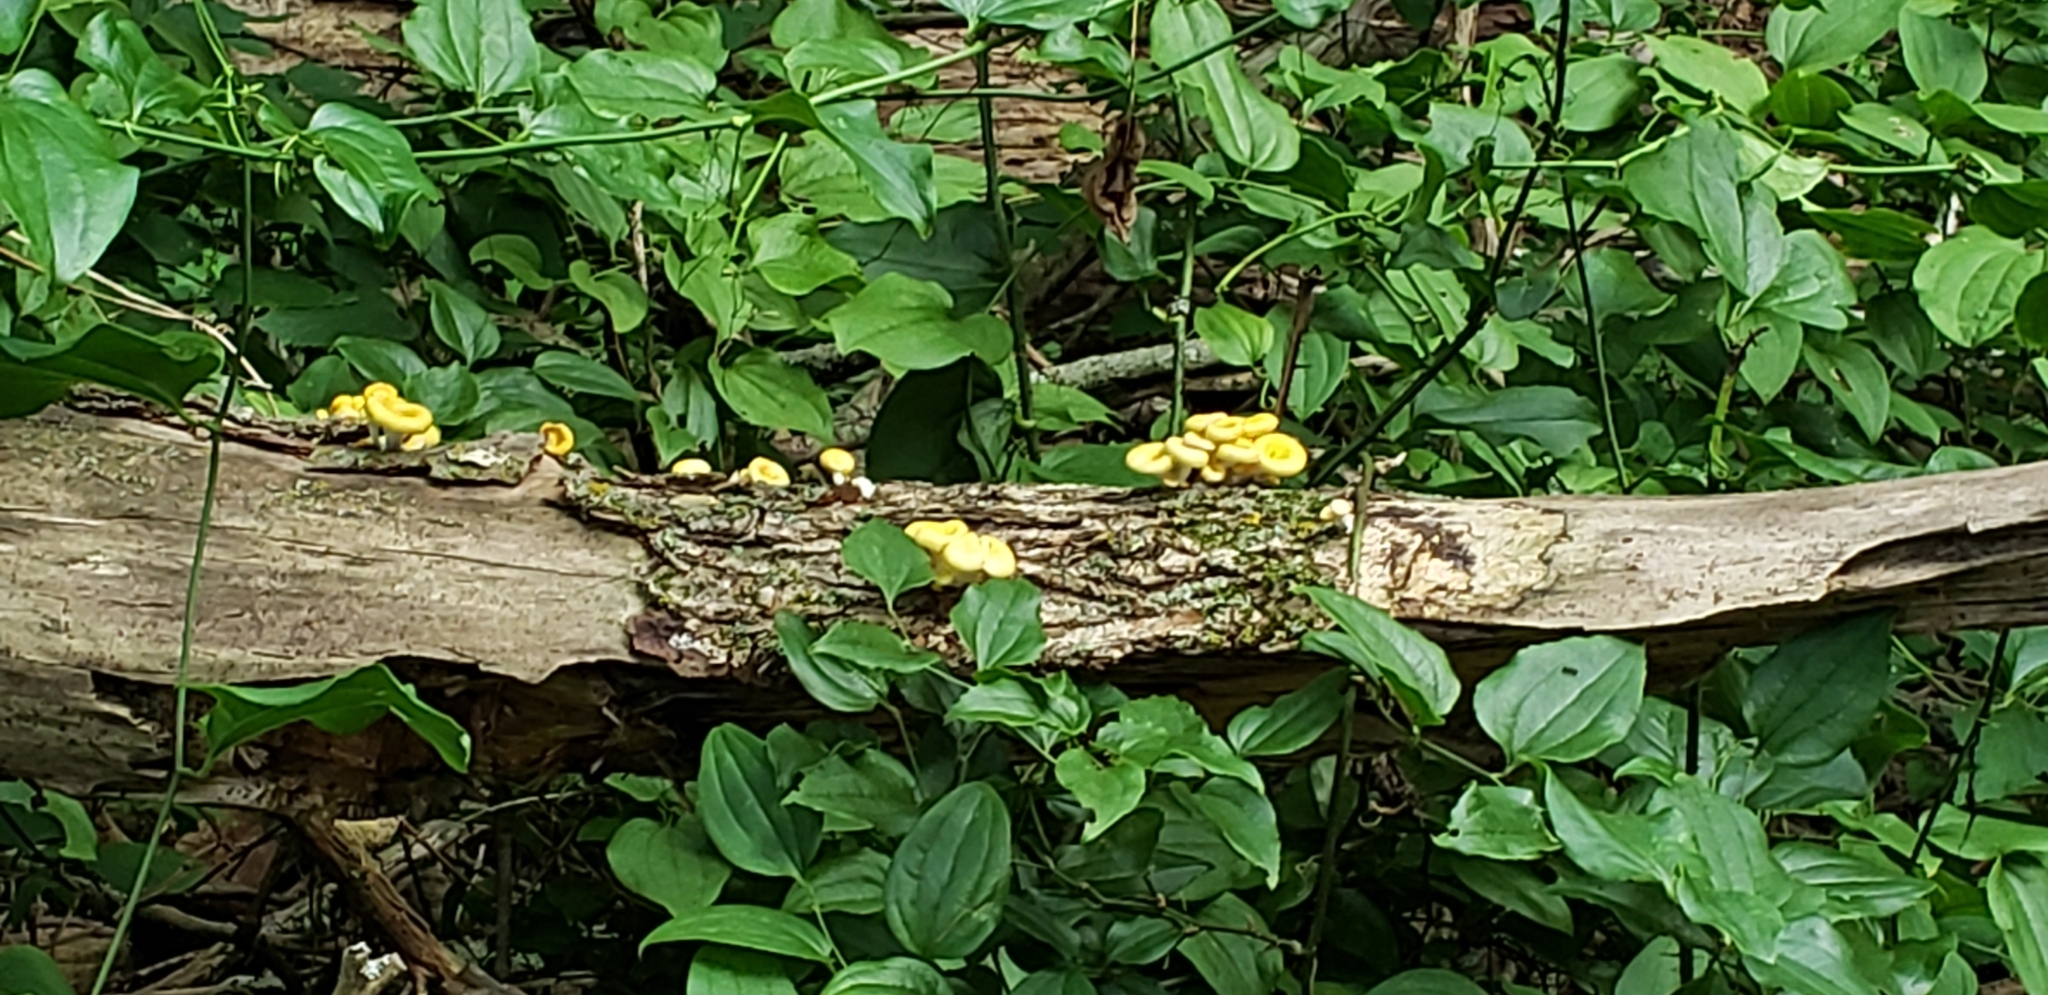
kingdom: Fungi
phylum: Basidiomycota
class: Agaricomycetes
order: Agaricales
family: Pleurotaceae
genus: Pleurotus
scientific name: Pleurotus citrinopileatus
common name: Golden oyster mushroom
